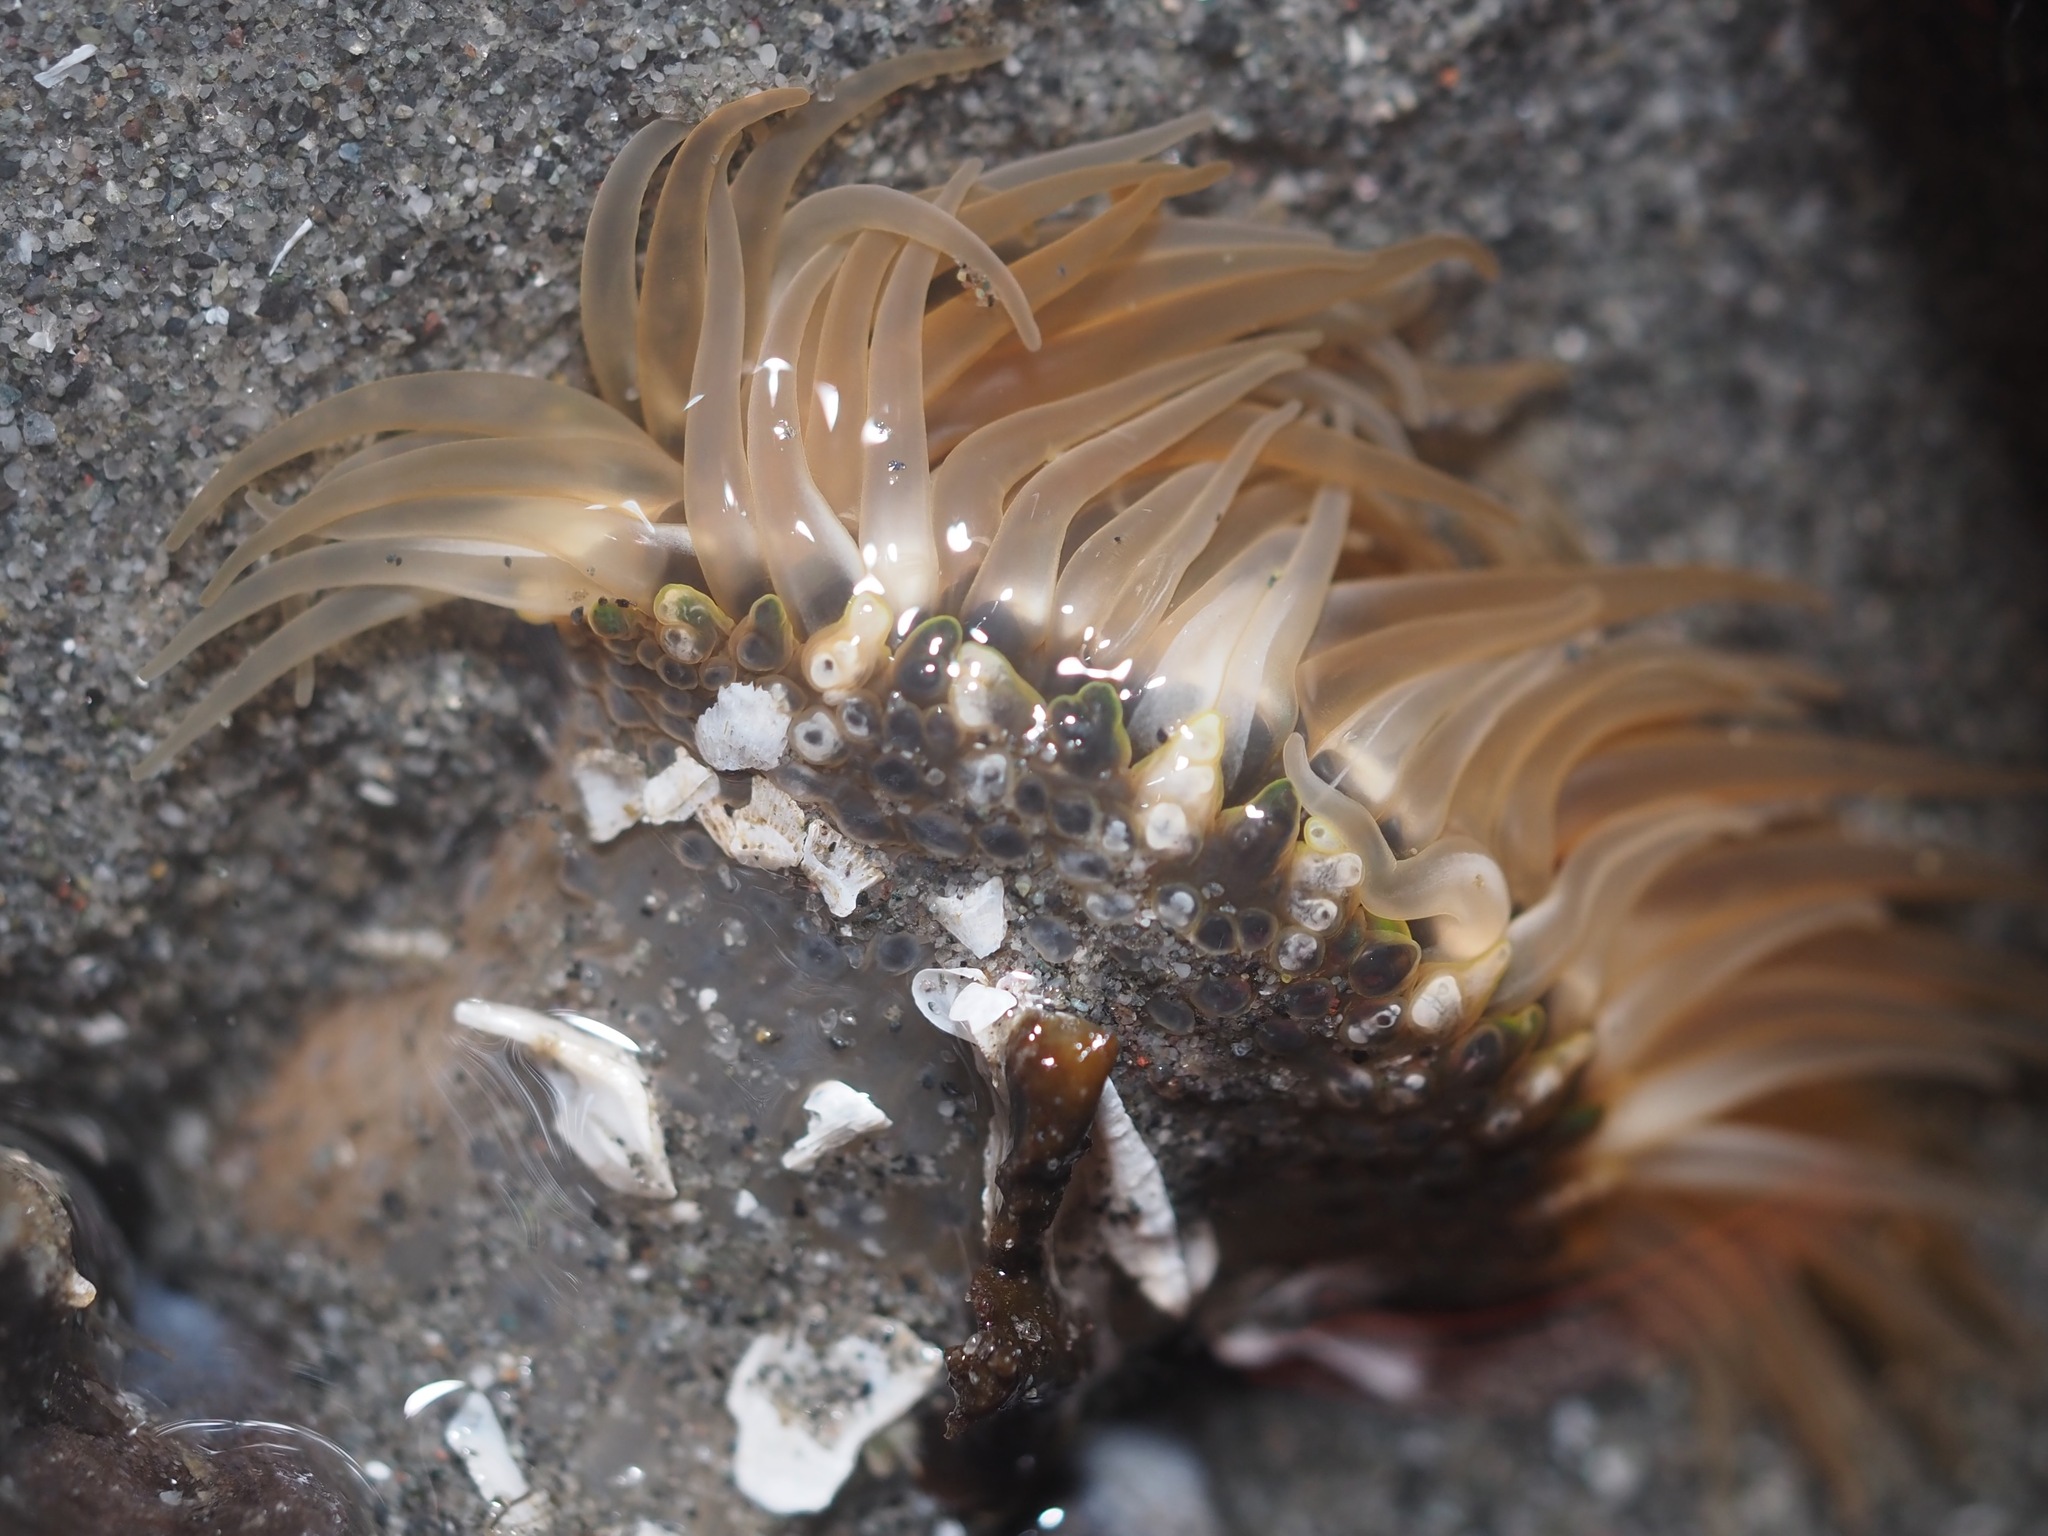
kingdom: Animalia
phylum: Cnidaria
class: Anthozoa
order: Actiniaria
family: Actiniidae
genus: Anthopleura
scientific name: Anthopleura artemisia
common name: Buried sea anemone
